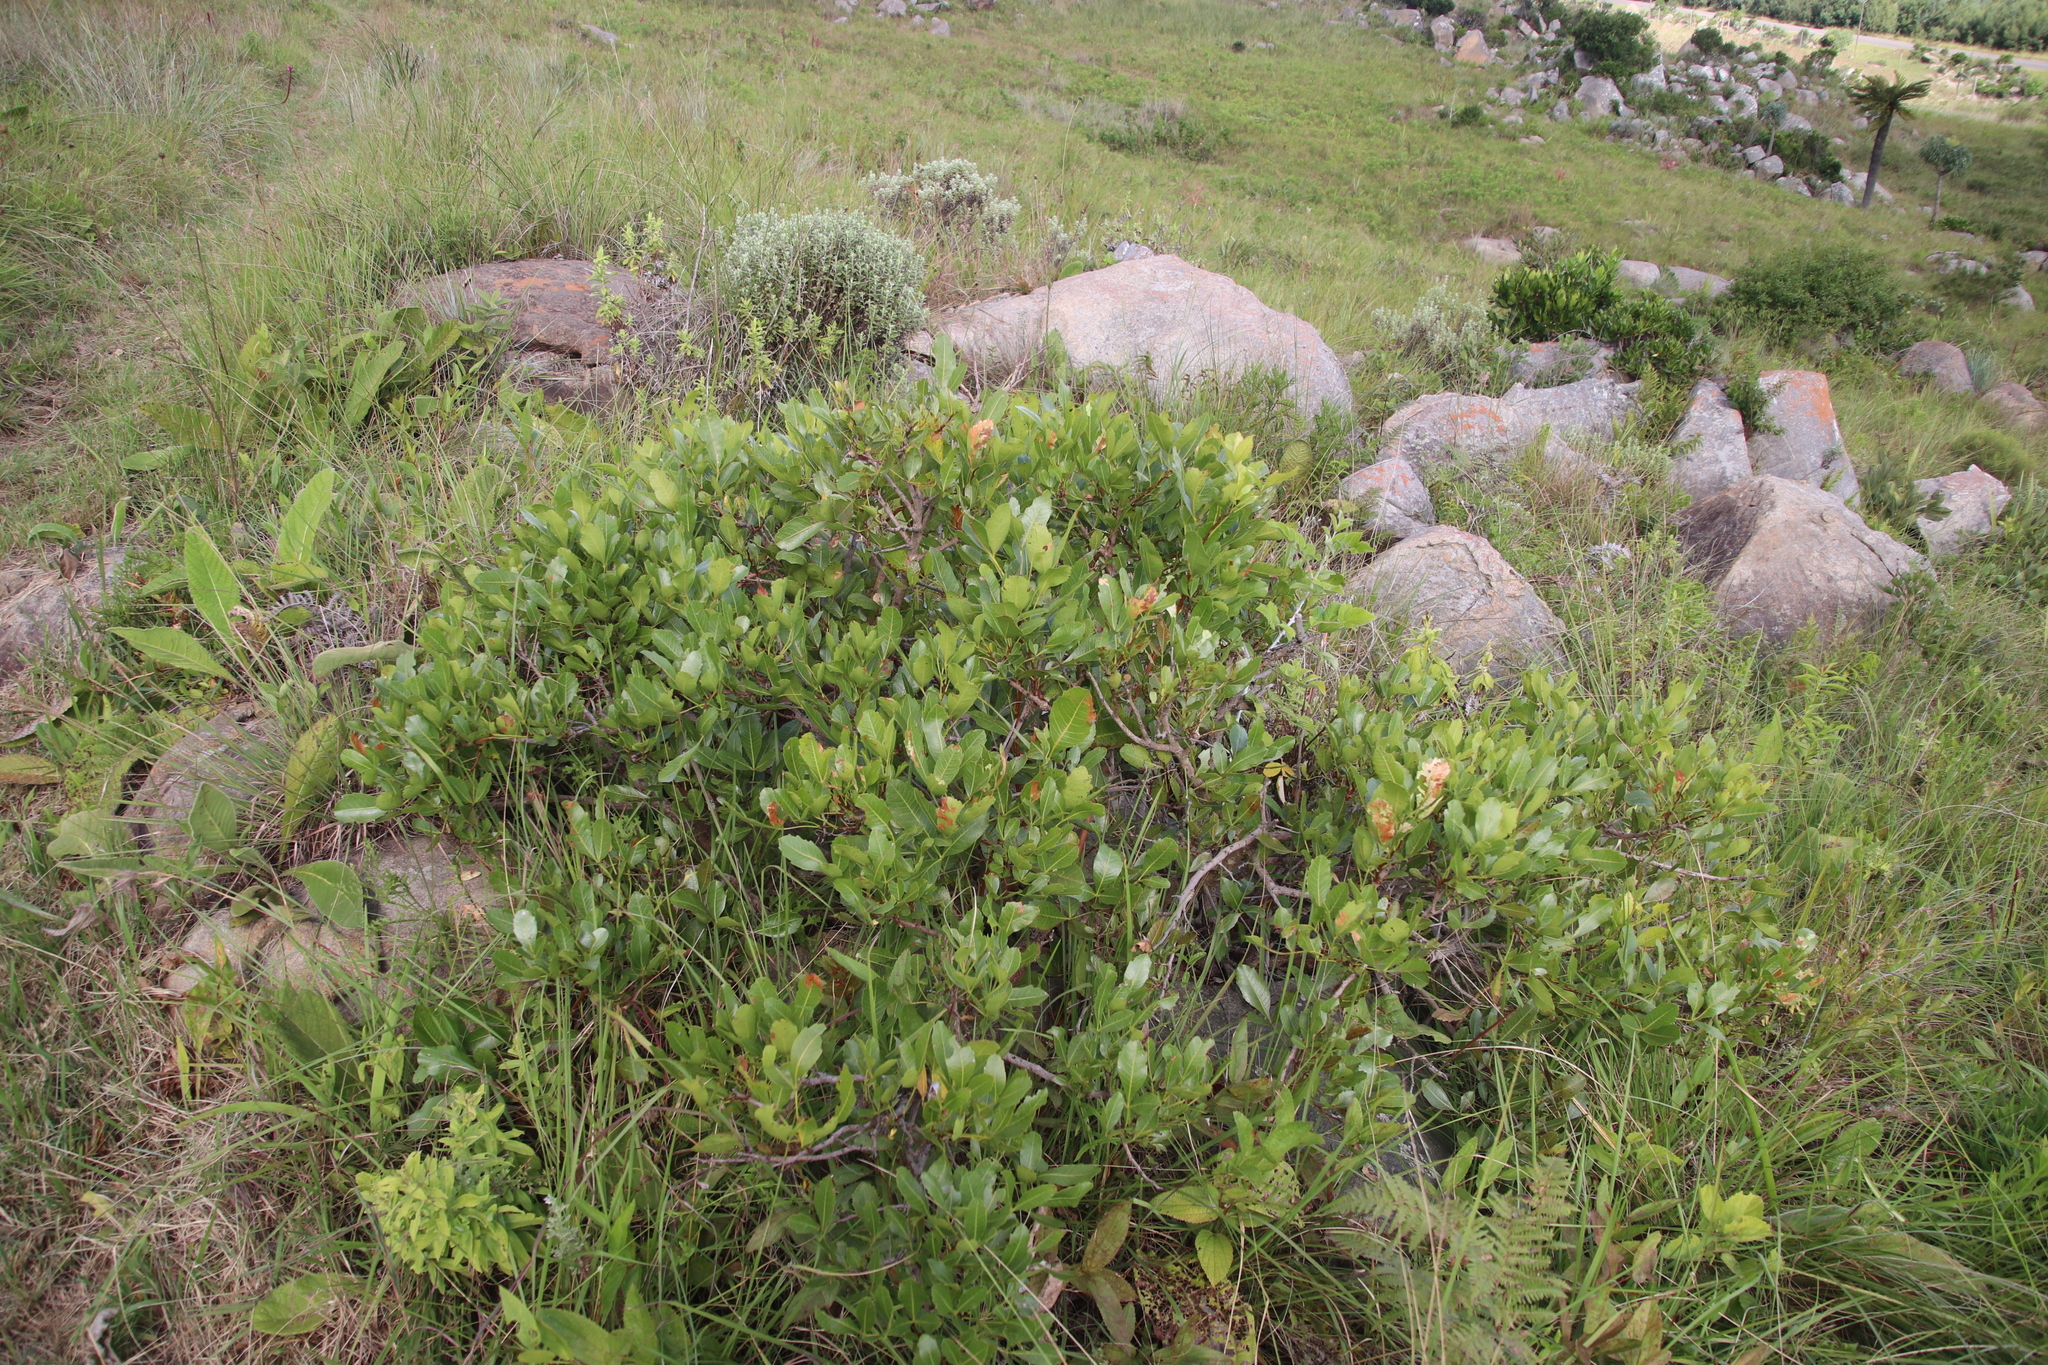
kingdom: Plantae
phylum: Tracheophyta
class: Magnoliopsida
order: Sapindales
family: Anacardiaceae
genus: Searsia
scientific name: Searsia pyroides
